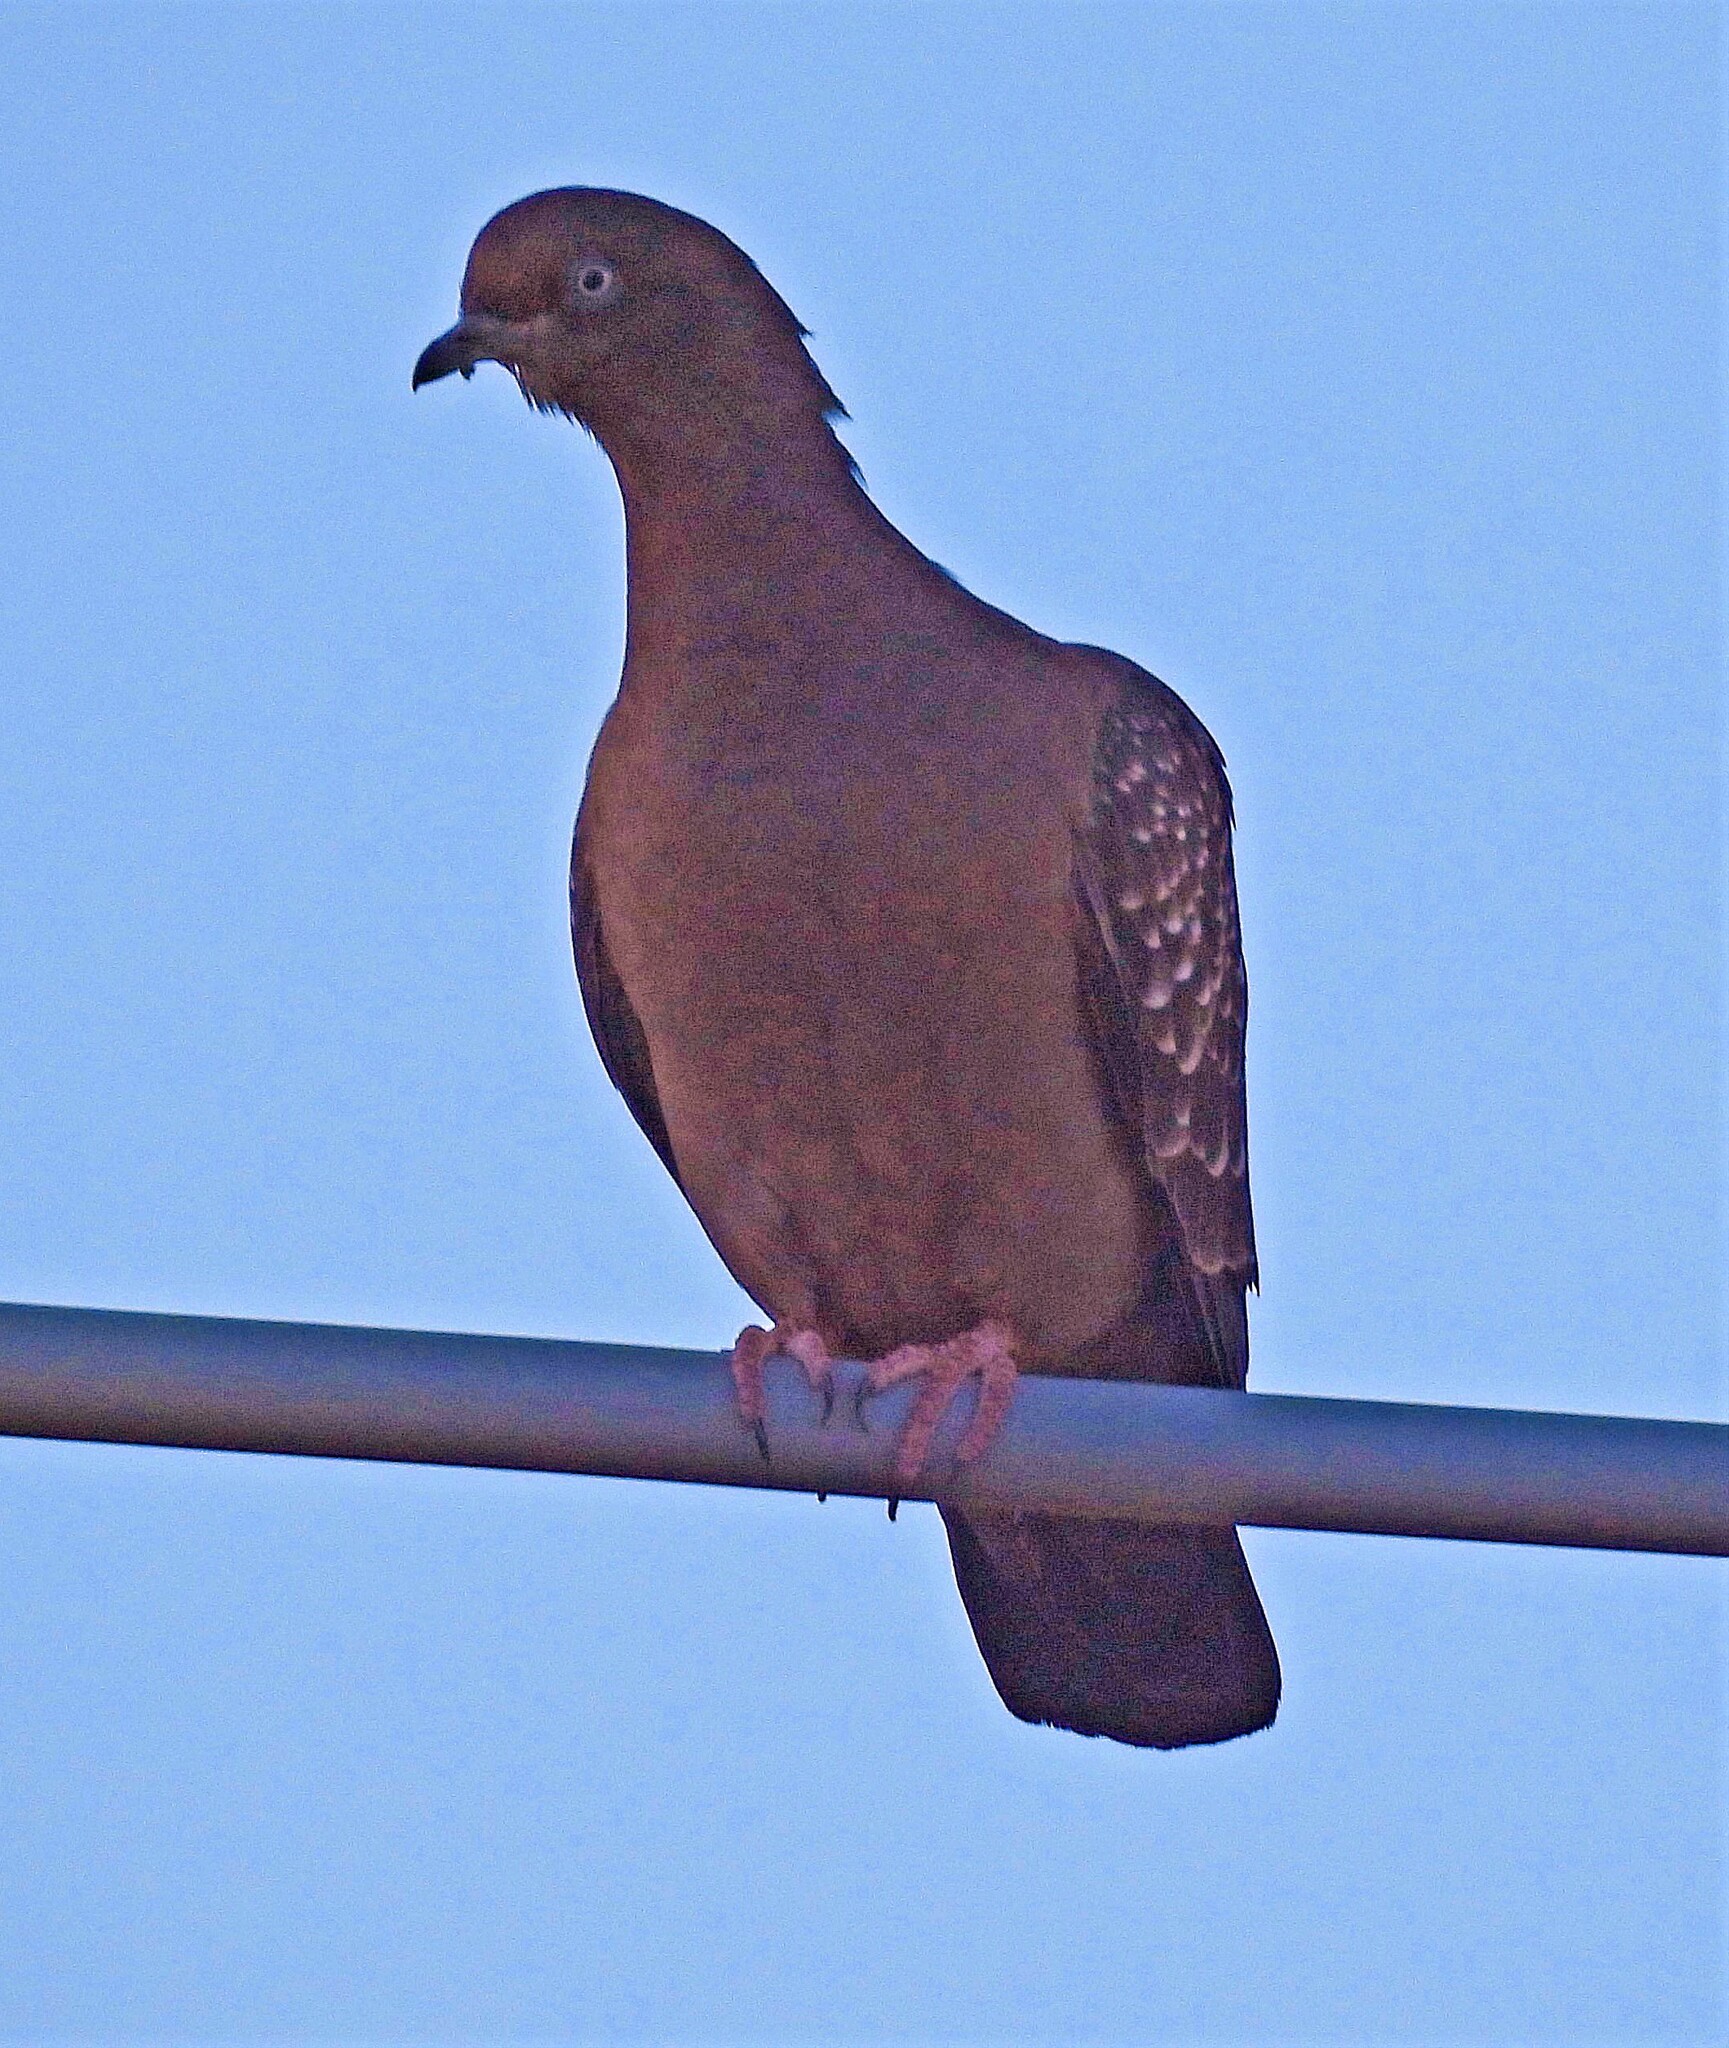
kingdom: Animalia
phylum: Chordata
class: Aves
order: Columbiformes
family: Columbidae
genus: Patagioenas
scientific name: Patagioenas maculosa
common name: Spot-winged pigeon
